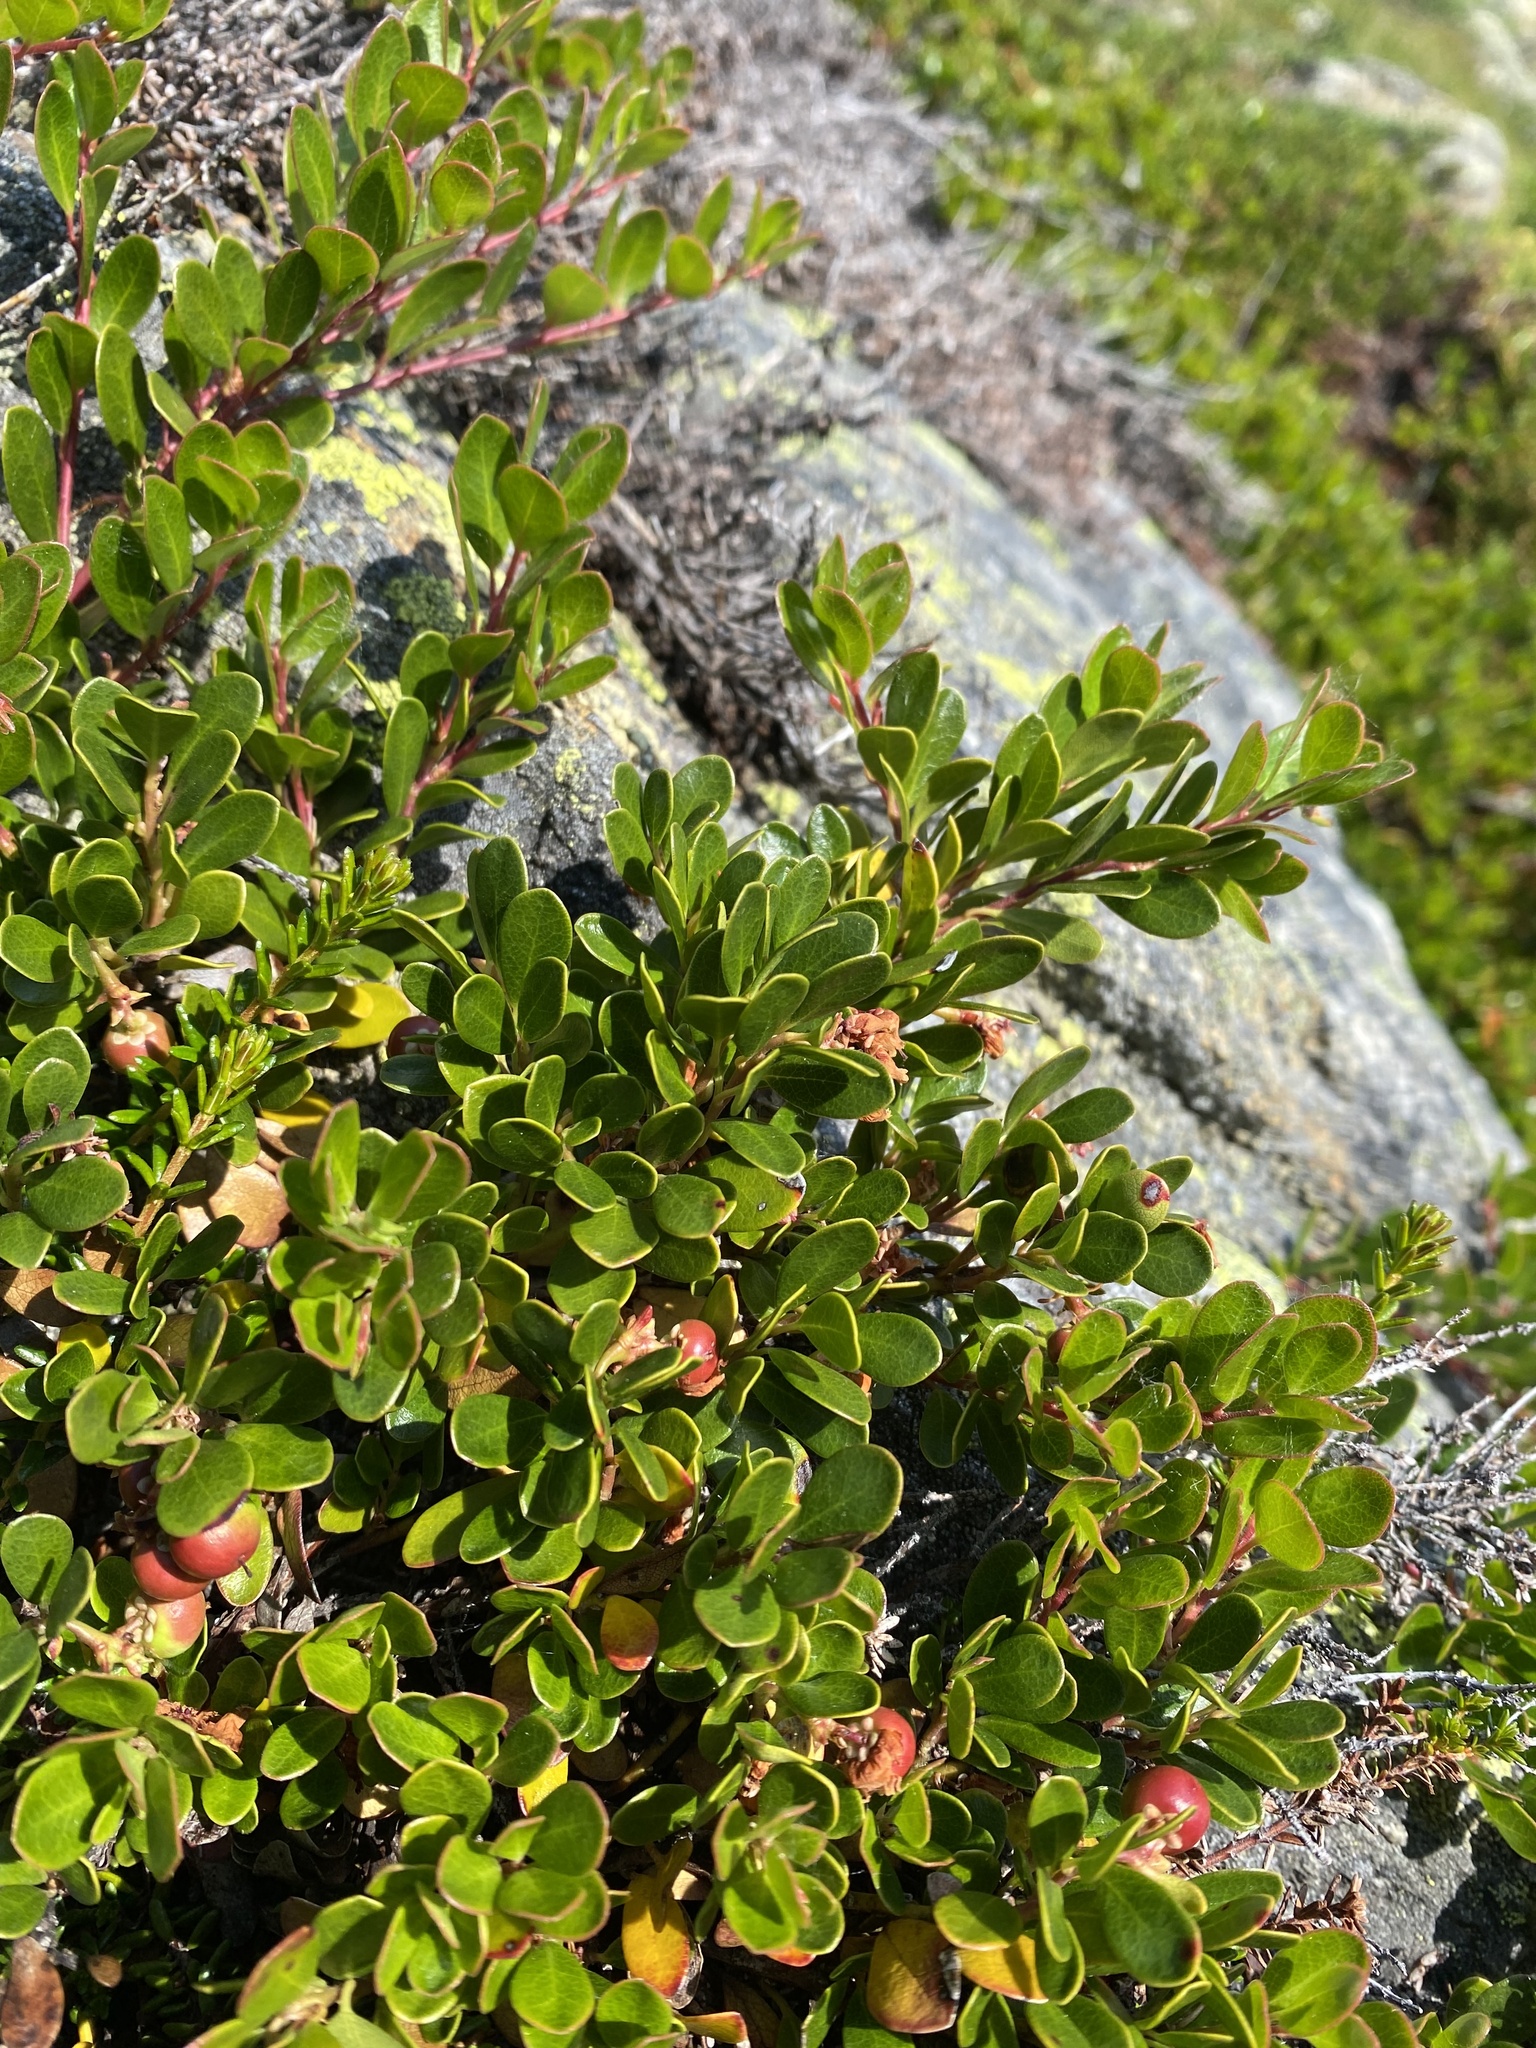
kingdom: Plantae
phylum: Tracheophyta
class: Magnoliopsida
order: Ericales
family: Ericaceae
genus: Arctostaphylos
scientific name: Arctostaphylos uva-ursi
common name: Bearberry
